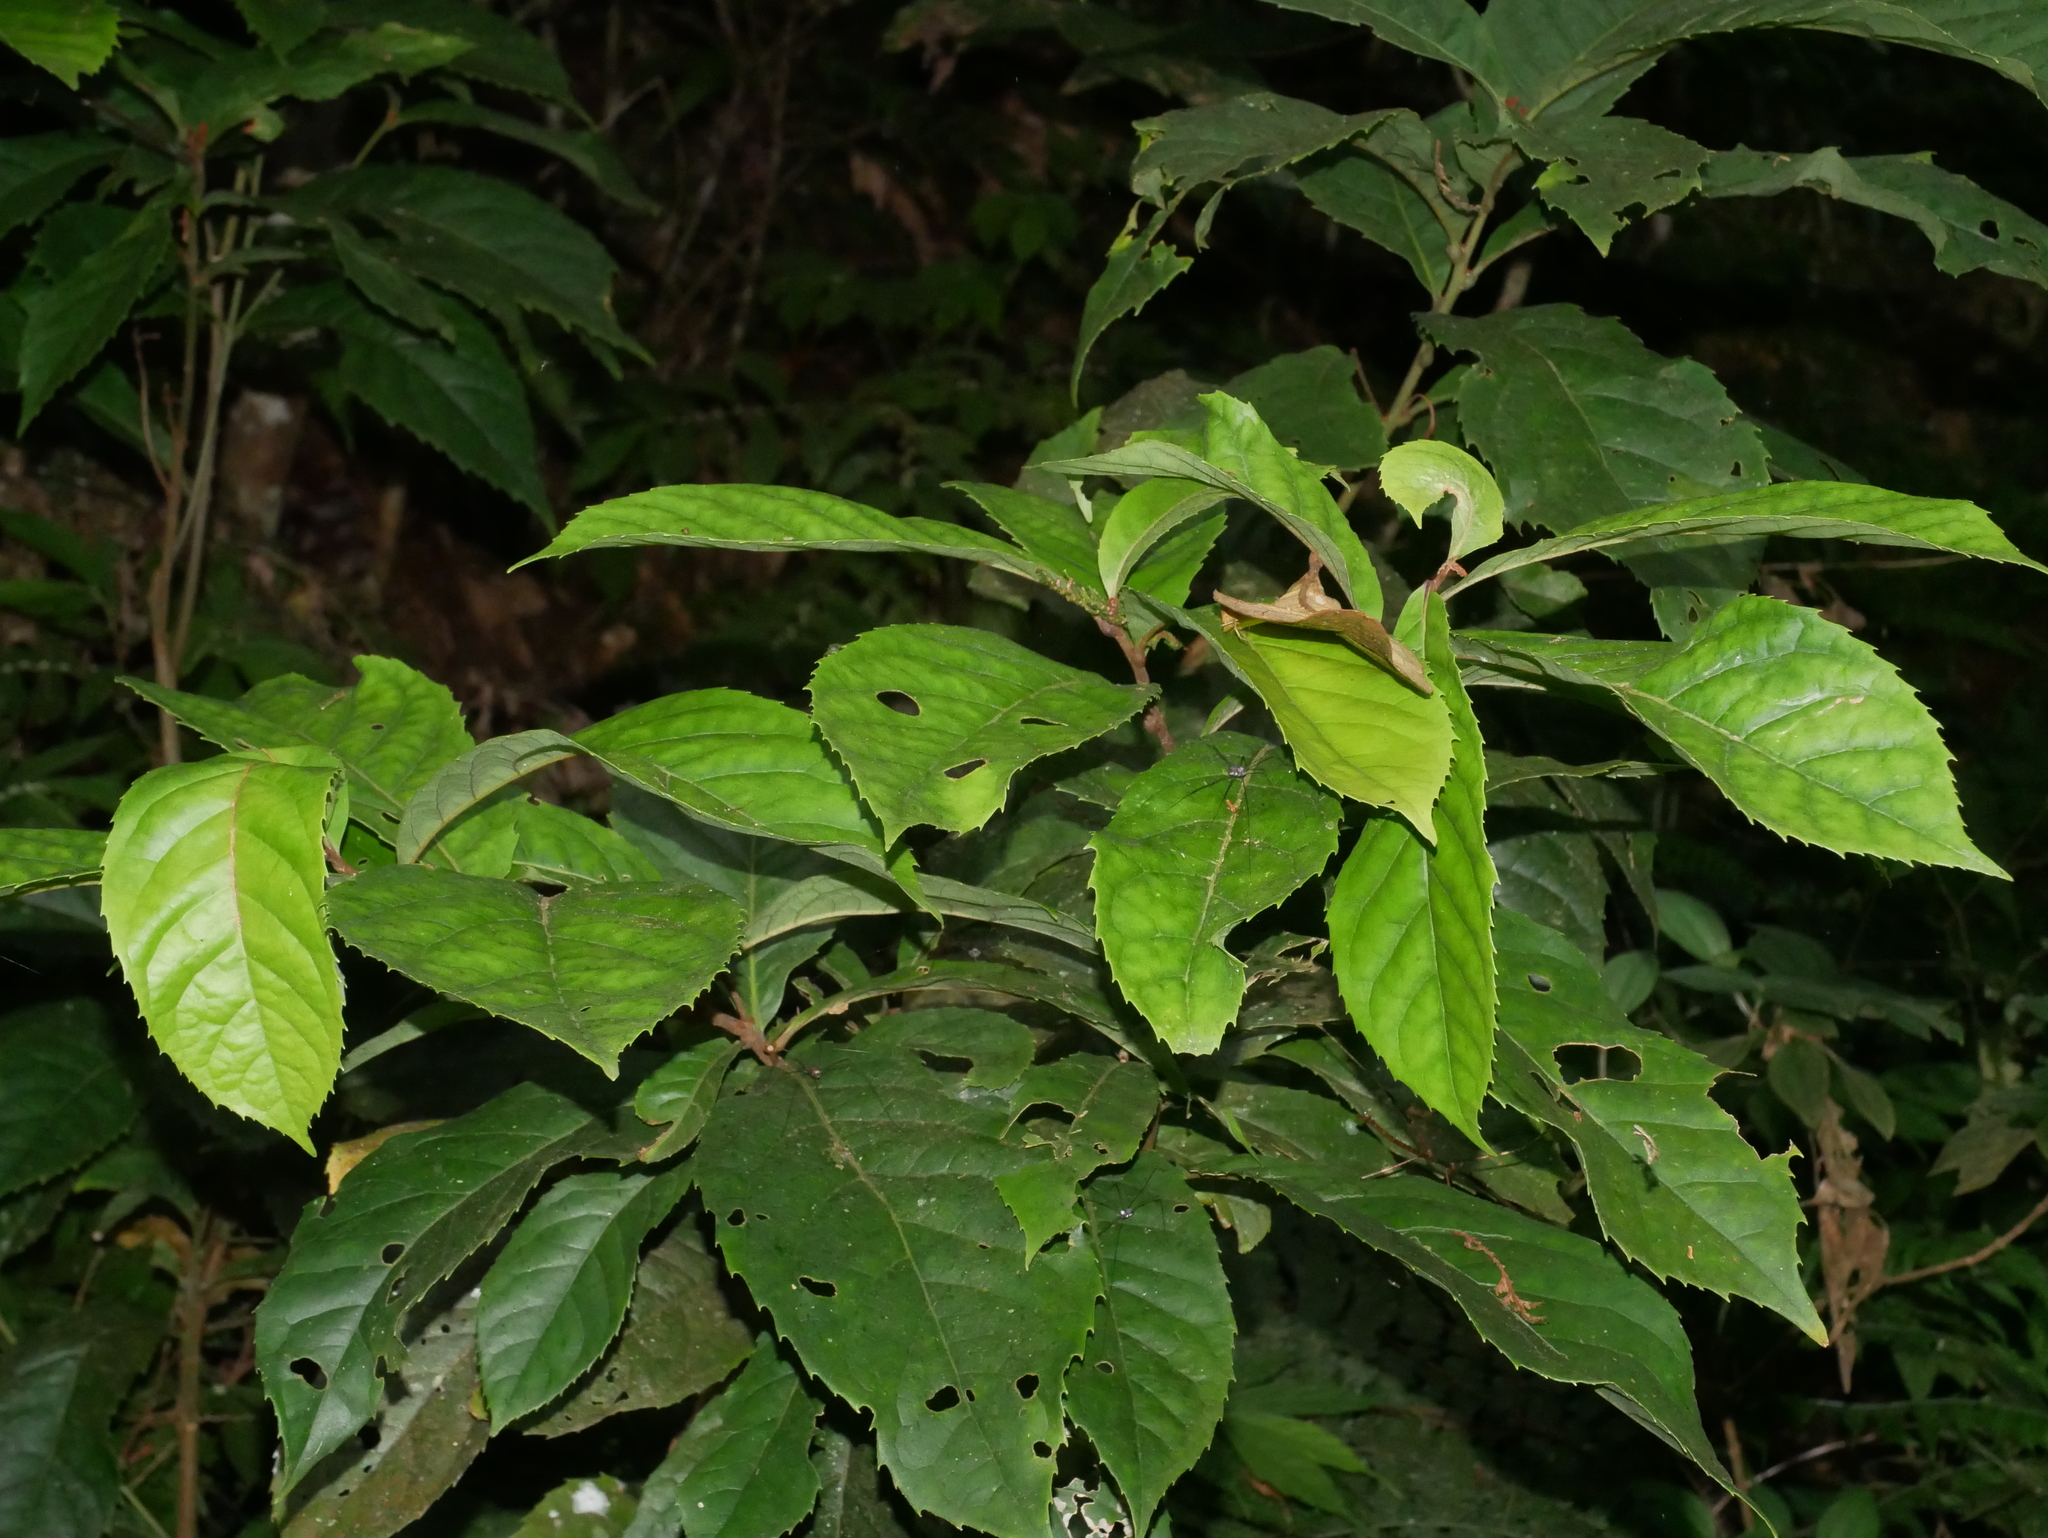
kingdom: Plantae
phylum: Tracheophyta
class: Magnoliopsida
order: Proteales
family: Proteaceae
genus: Helicia
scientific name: Helicia formosana
